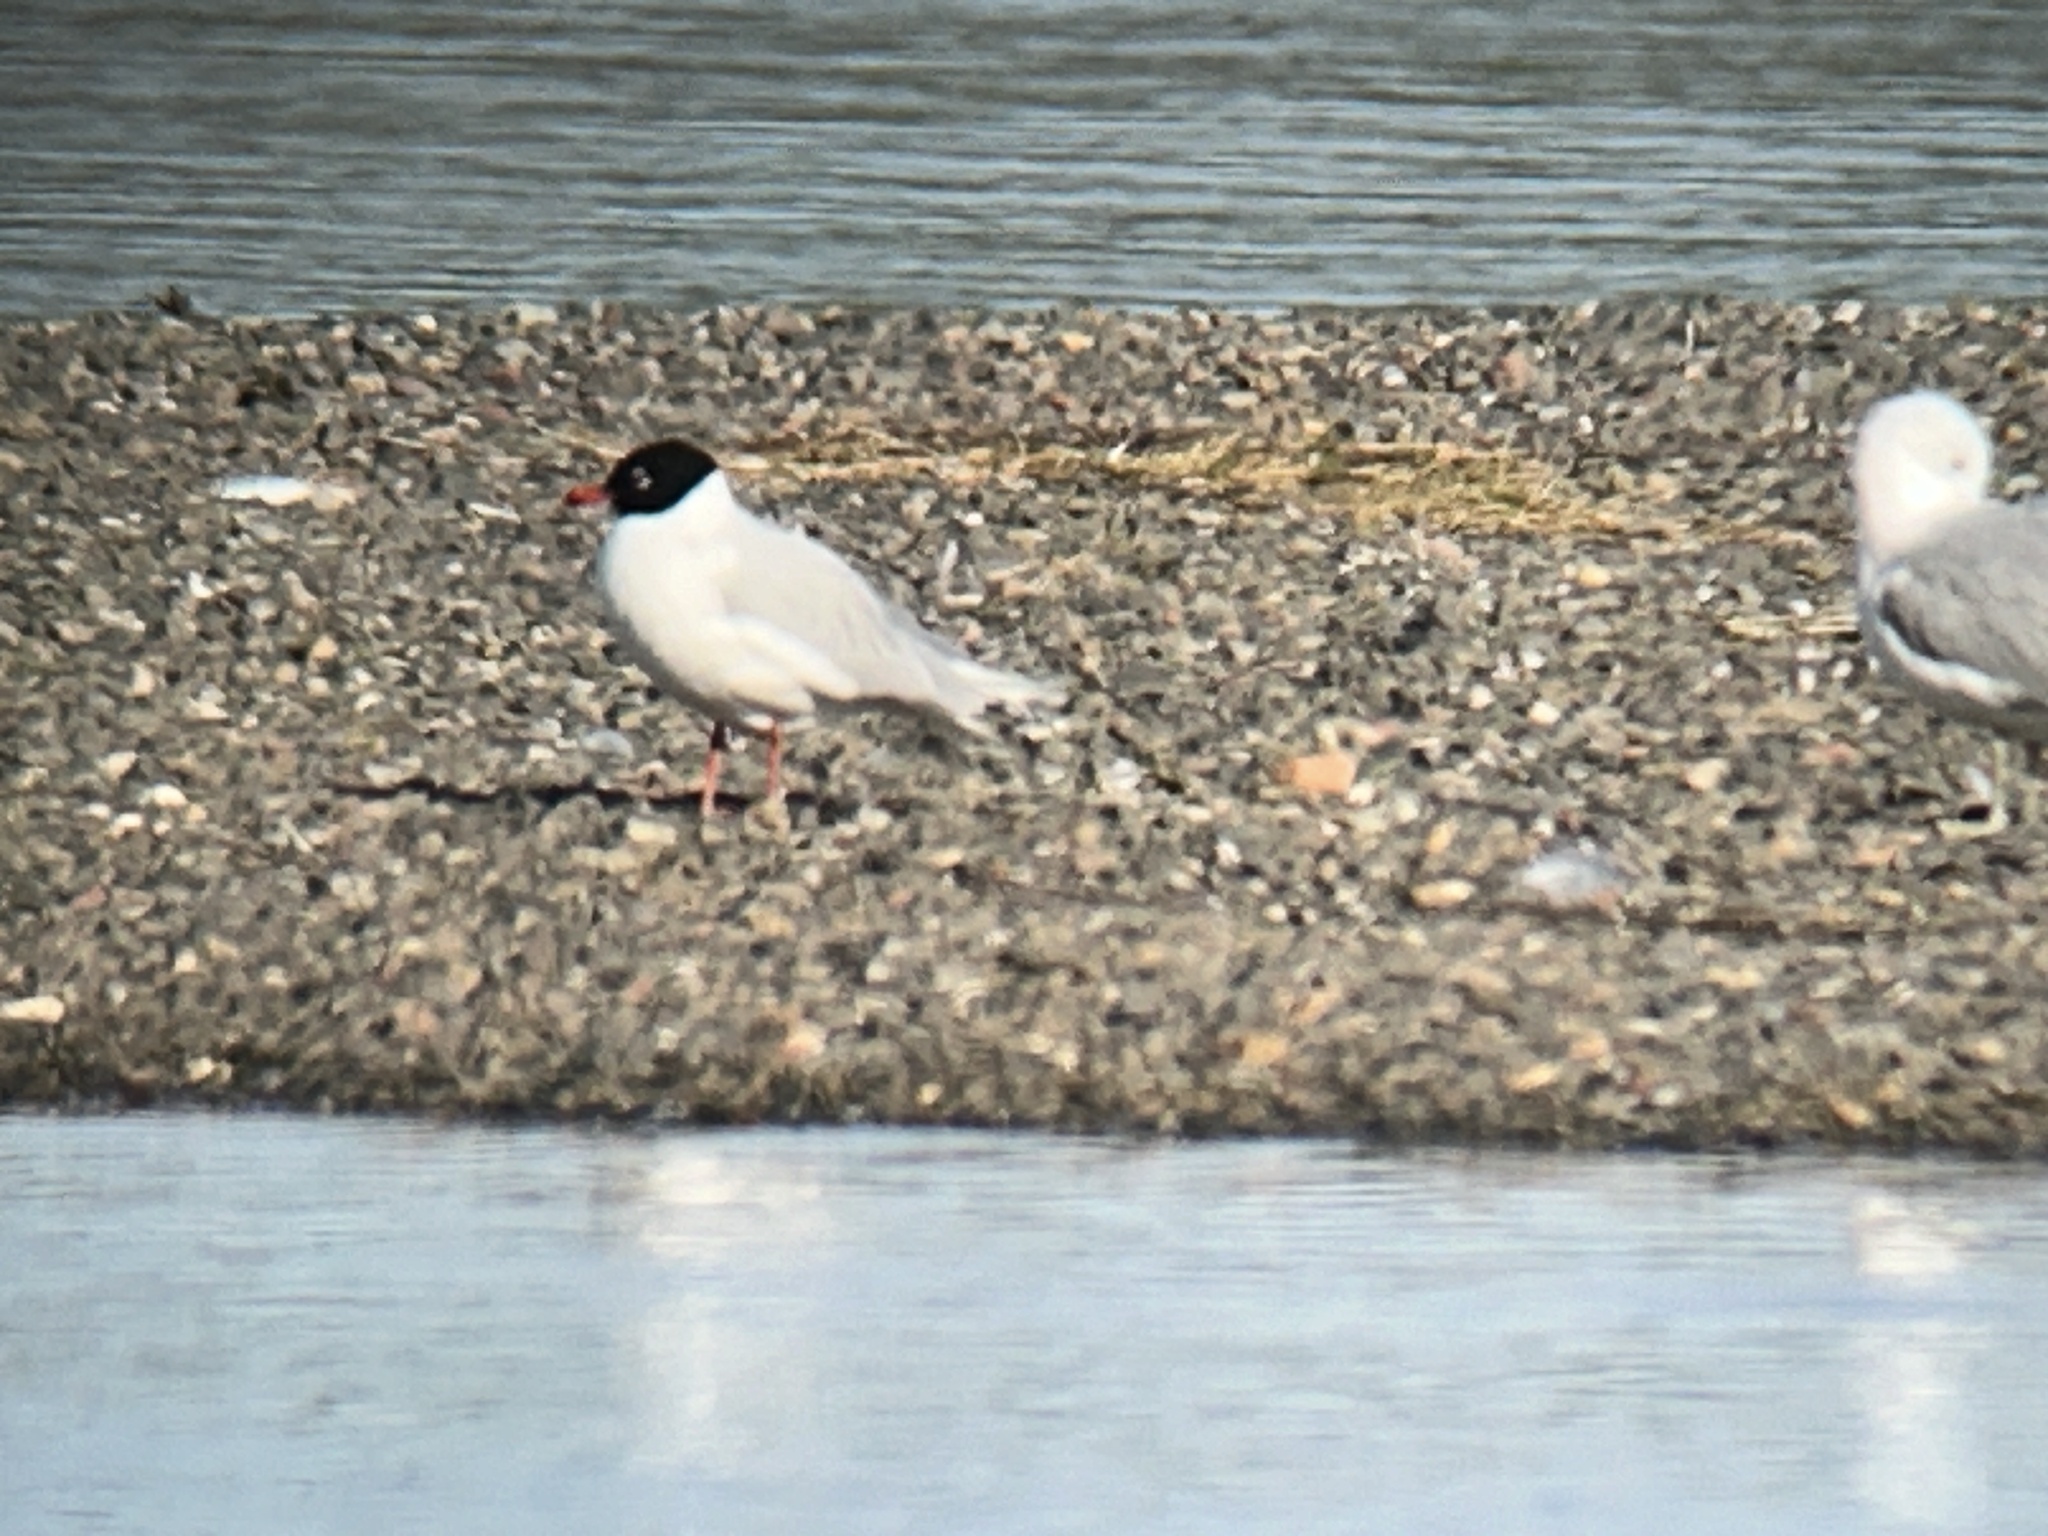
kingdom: Animalia
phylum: Chordata
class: Aves
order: Charadriiformes
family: Laridae
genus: Ichthyaetus
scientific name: Ichthyaetus melanocephalus
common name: Mediterranean gull
